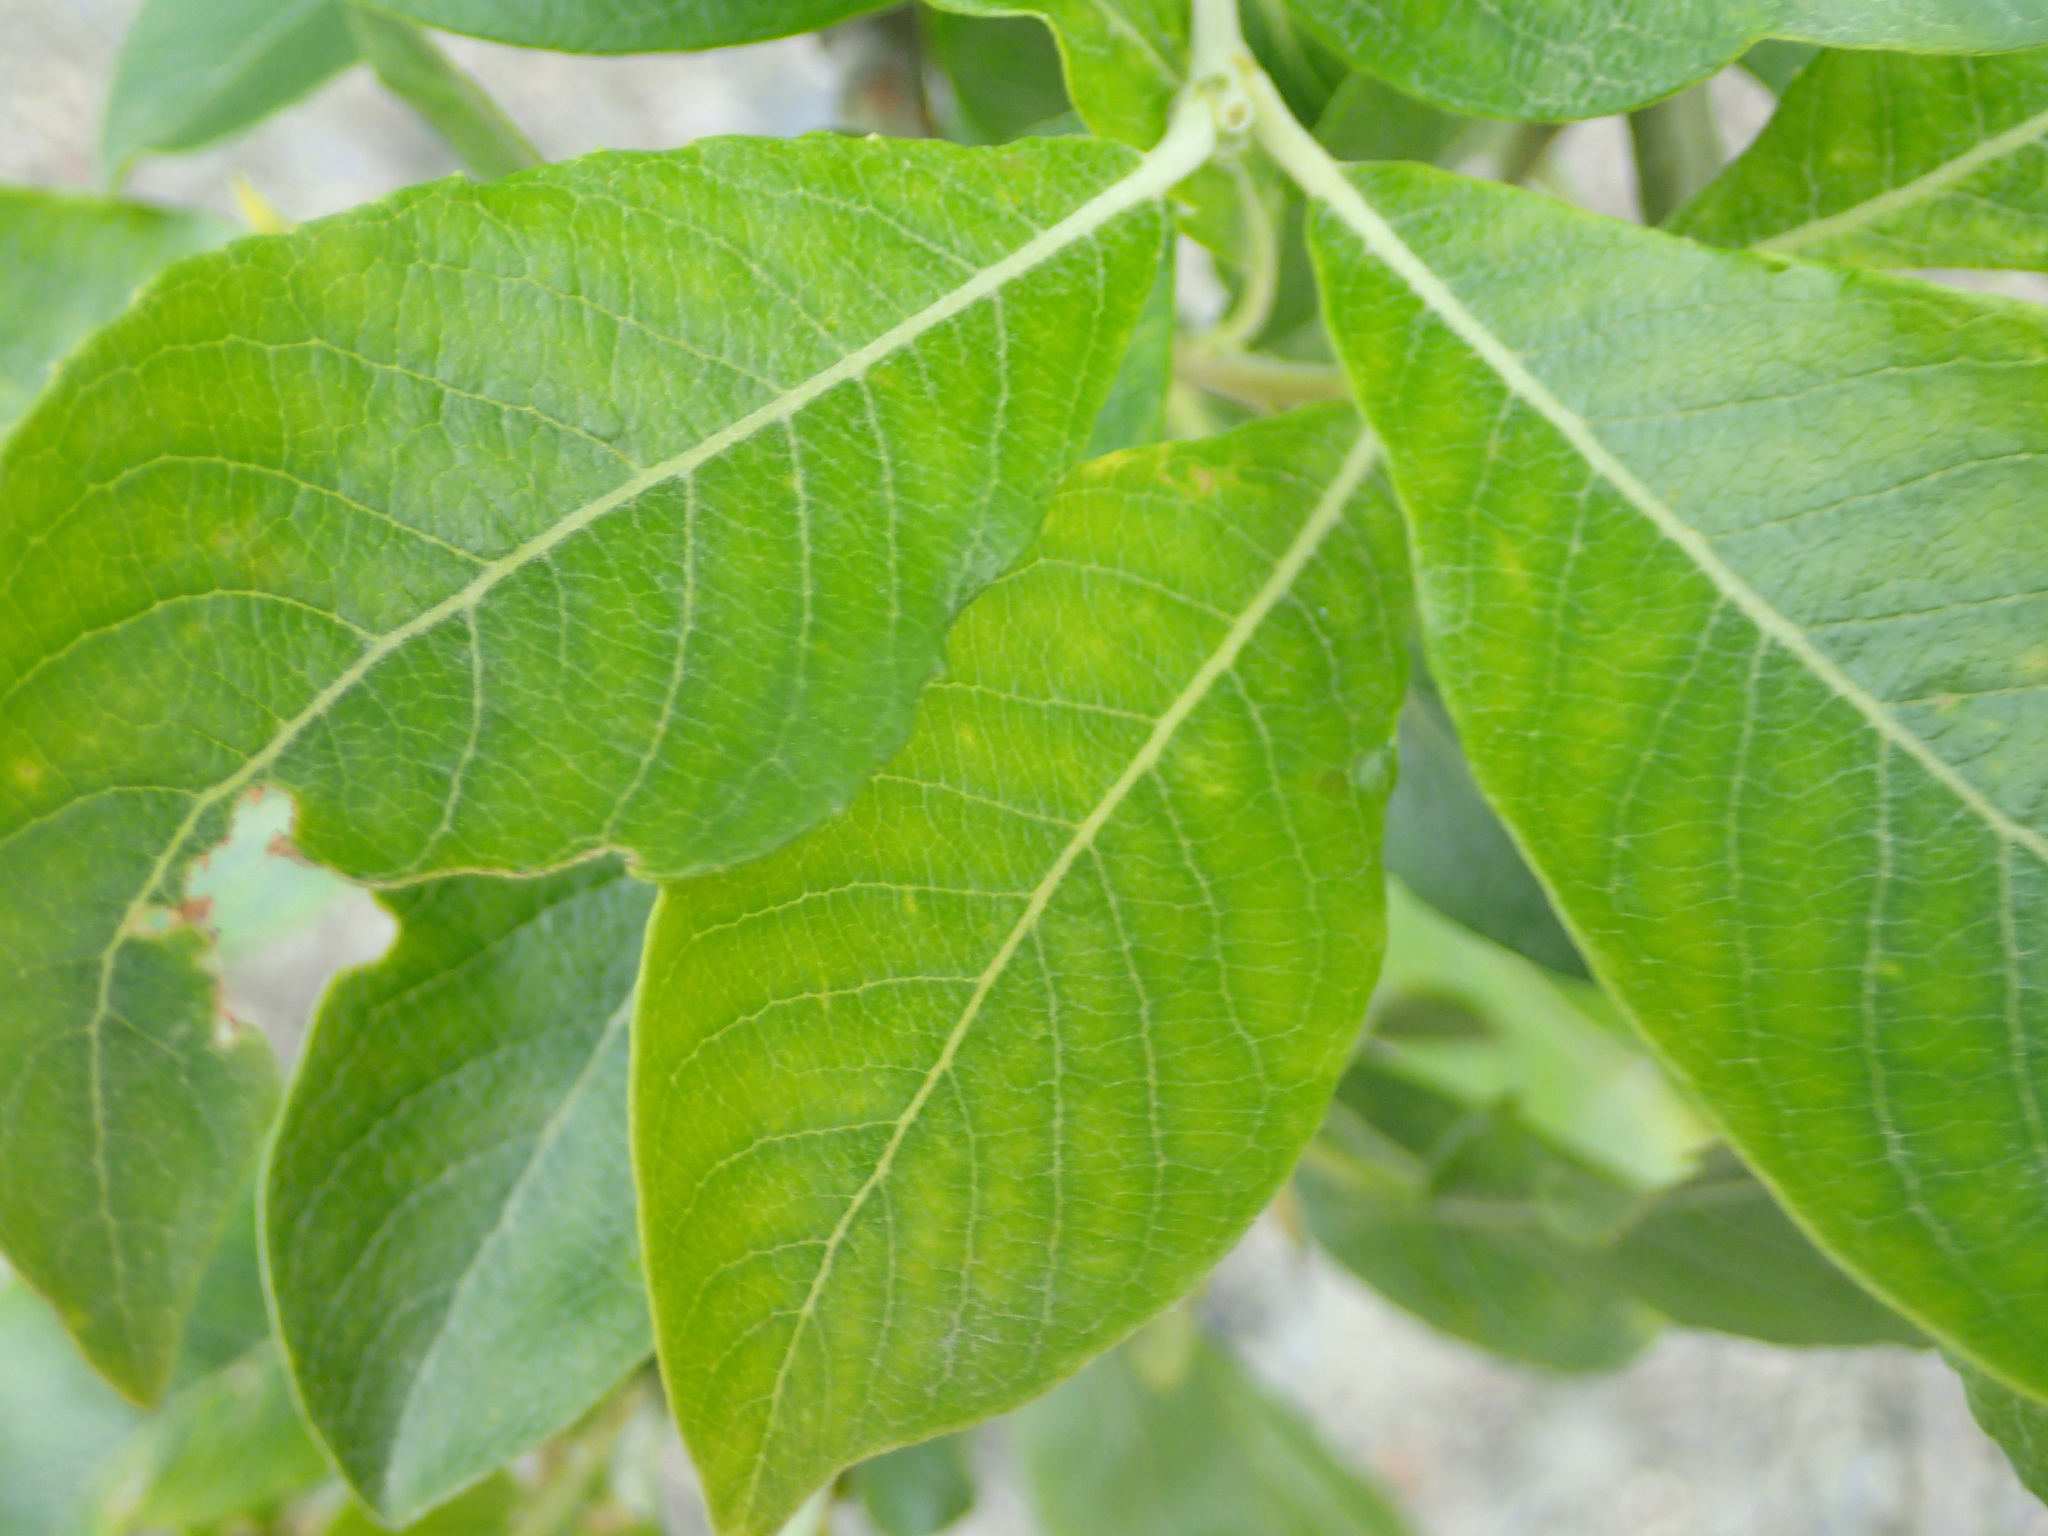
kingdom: Plantae
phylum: Tracheophyta
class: Magnoliopsida
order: Malpighiales
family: Salicaceae
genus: Salix
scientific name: Salix scouleriana
